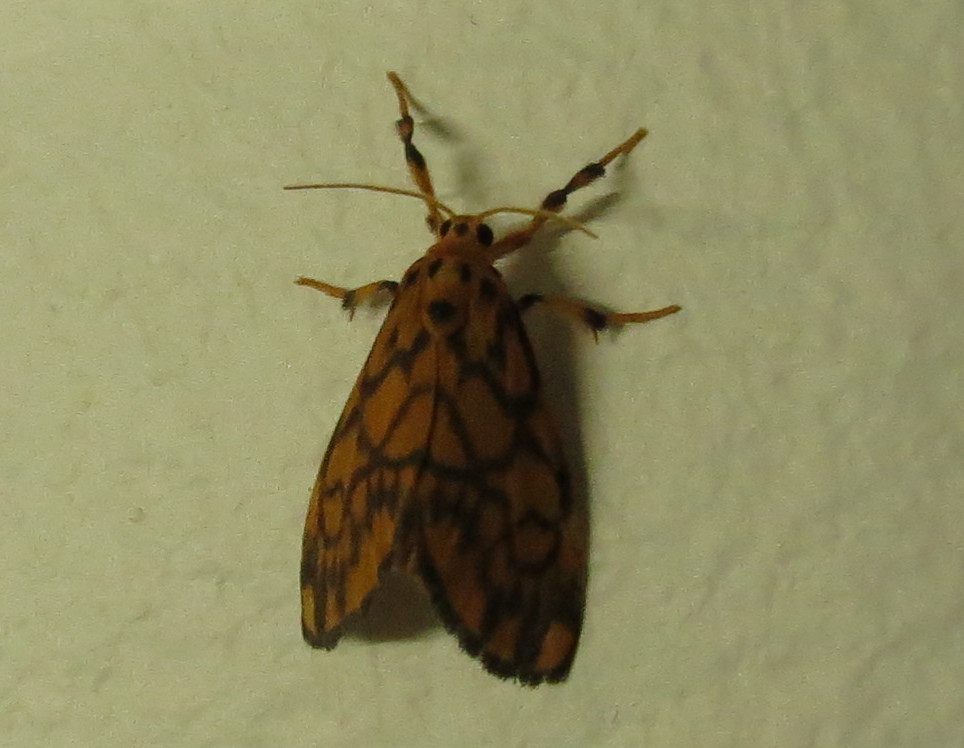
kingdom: Animalia
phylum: Arthropoda
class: Insecta
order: Lepidoptera
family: Erebidae
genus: Tumicla
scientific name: Tumicla sagenaria
